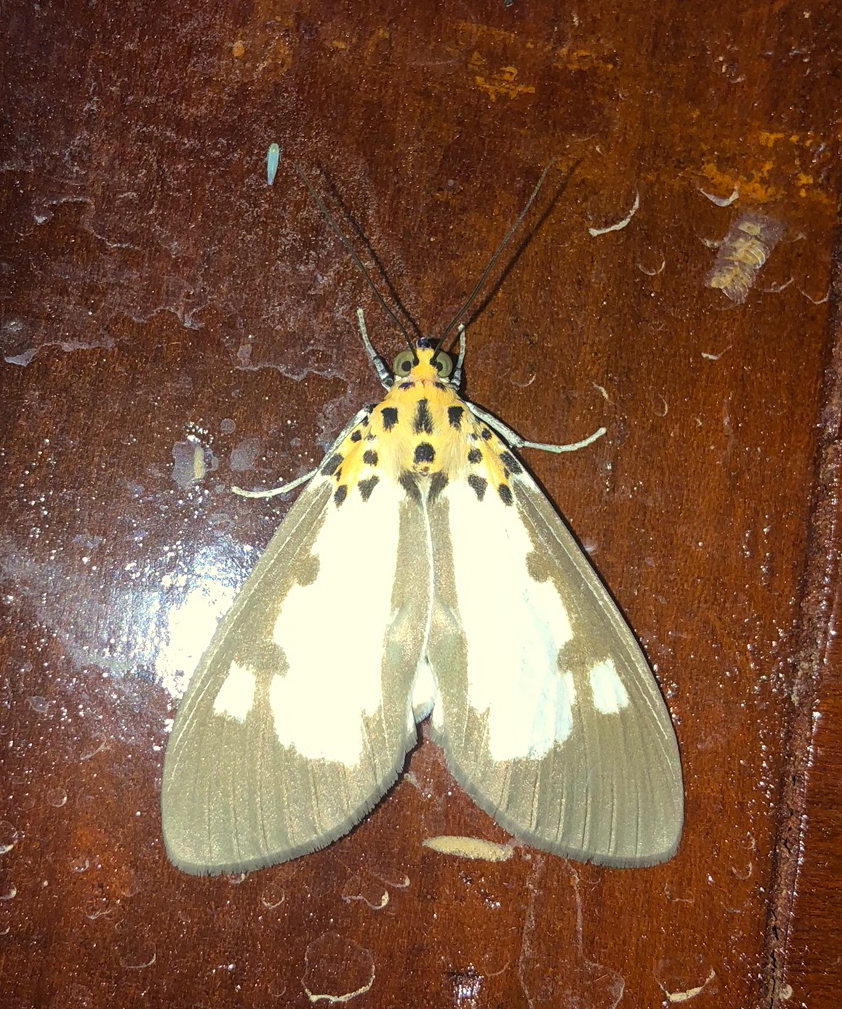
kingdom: Animalia
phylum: Arthropoda
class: Insecta
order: Lepidoptera
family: Erebidae
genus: Asota
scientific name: Asota plana
